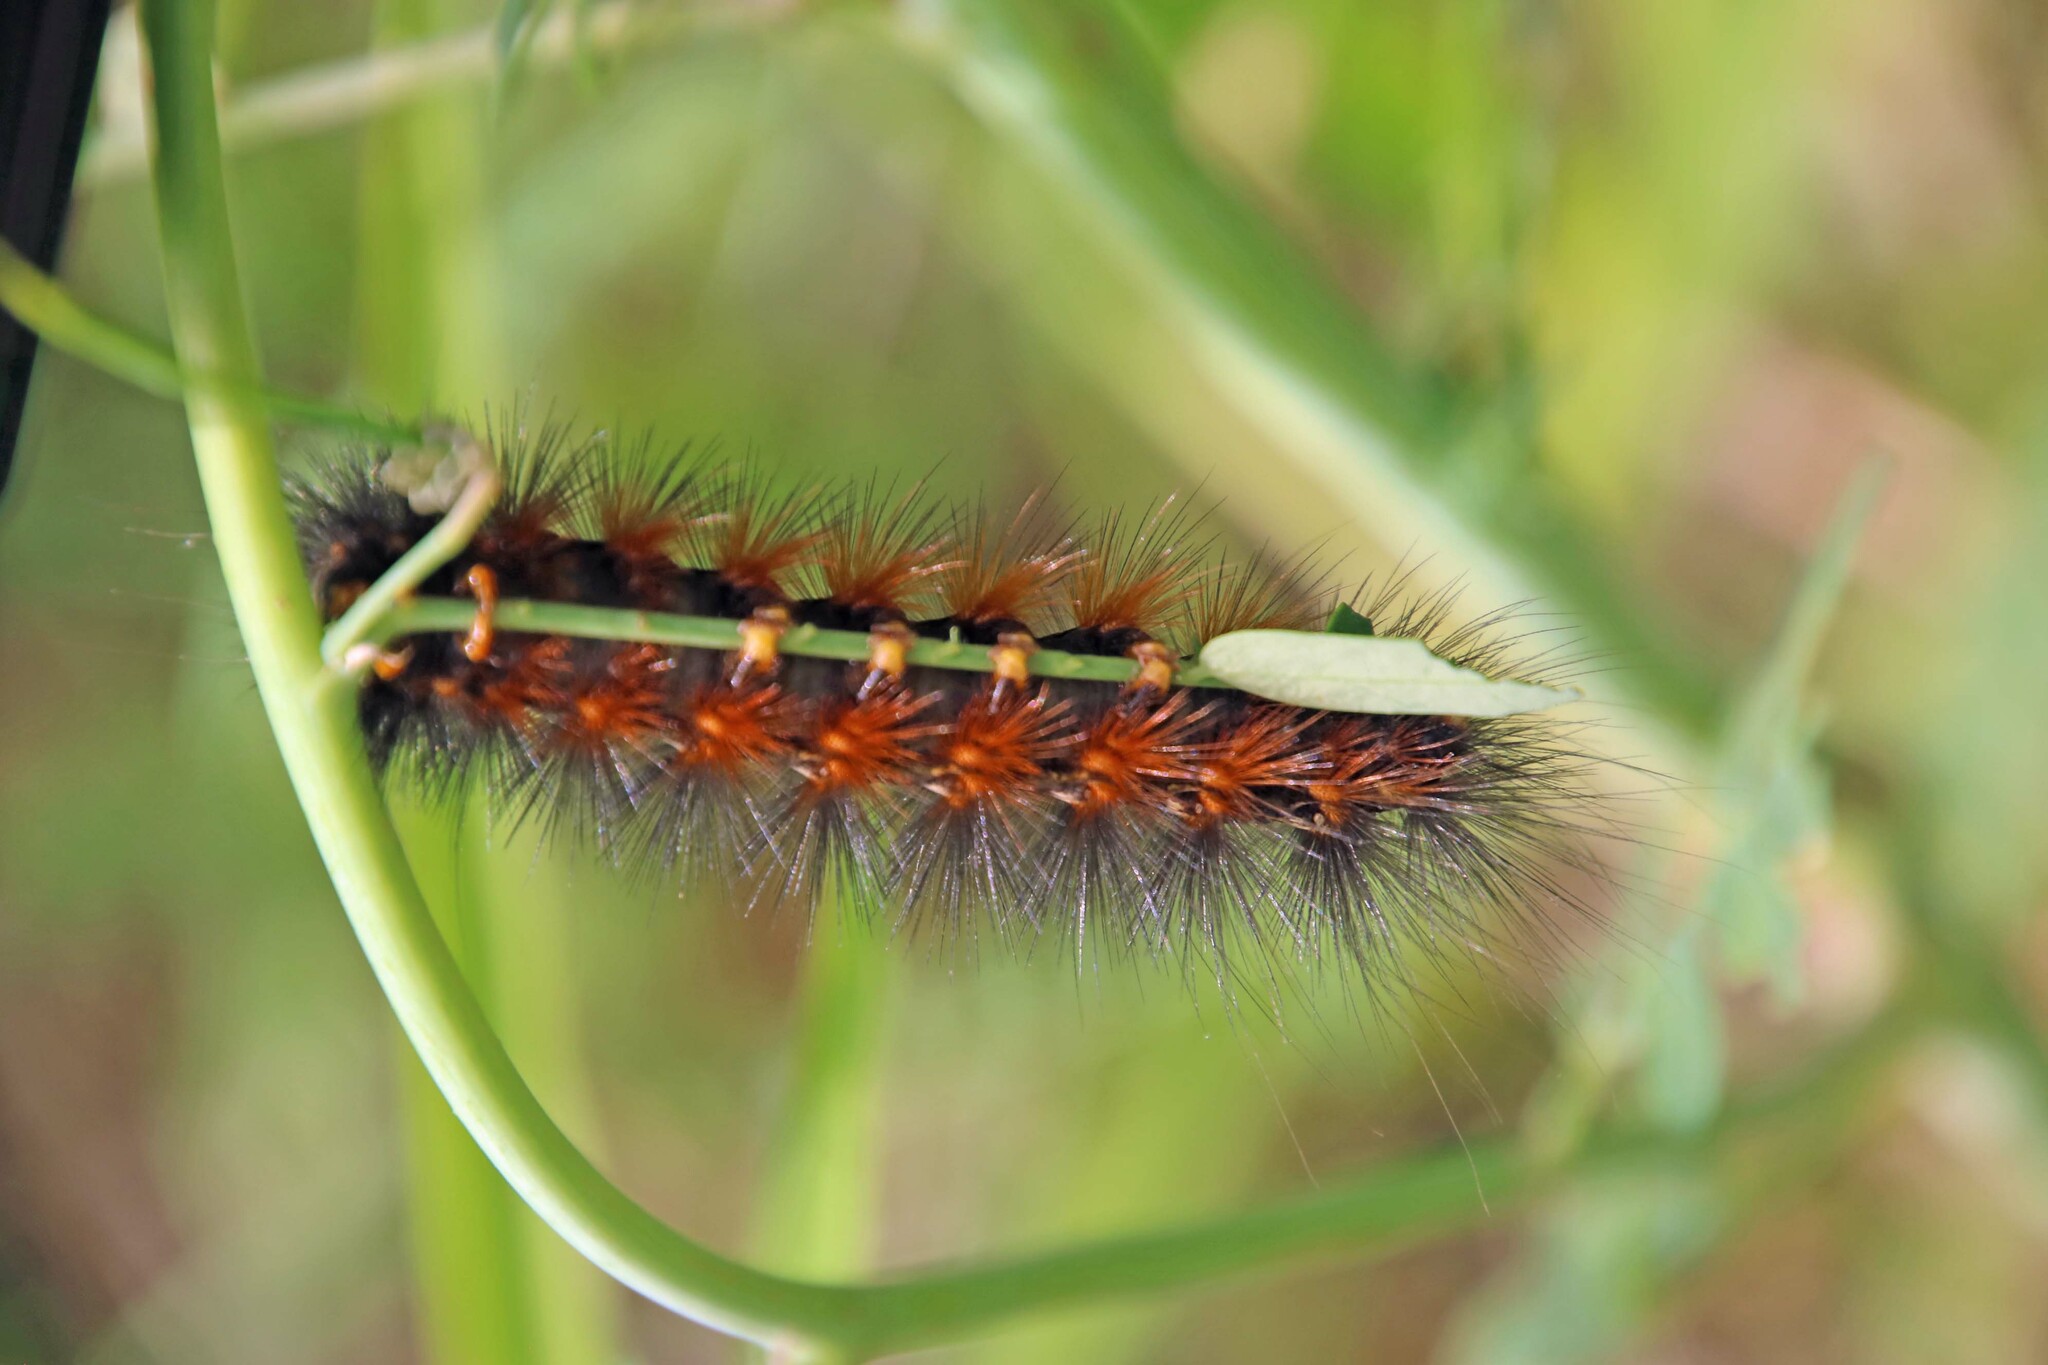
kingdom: Animalia
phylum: Arthropoda
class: Insecta
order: Lepidoptera
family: Erebidae
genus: Estigmene
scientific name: Estigmene acrea
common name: Salt marsh moth
